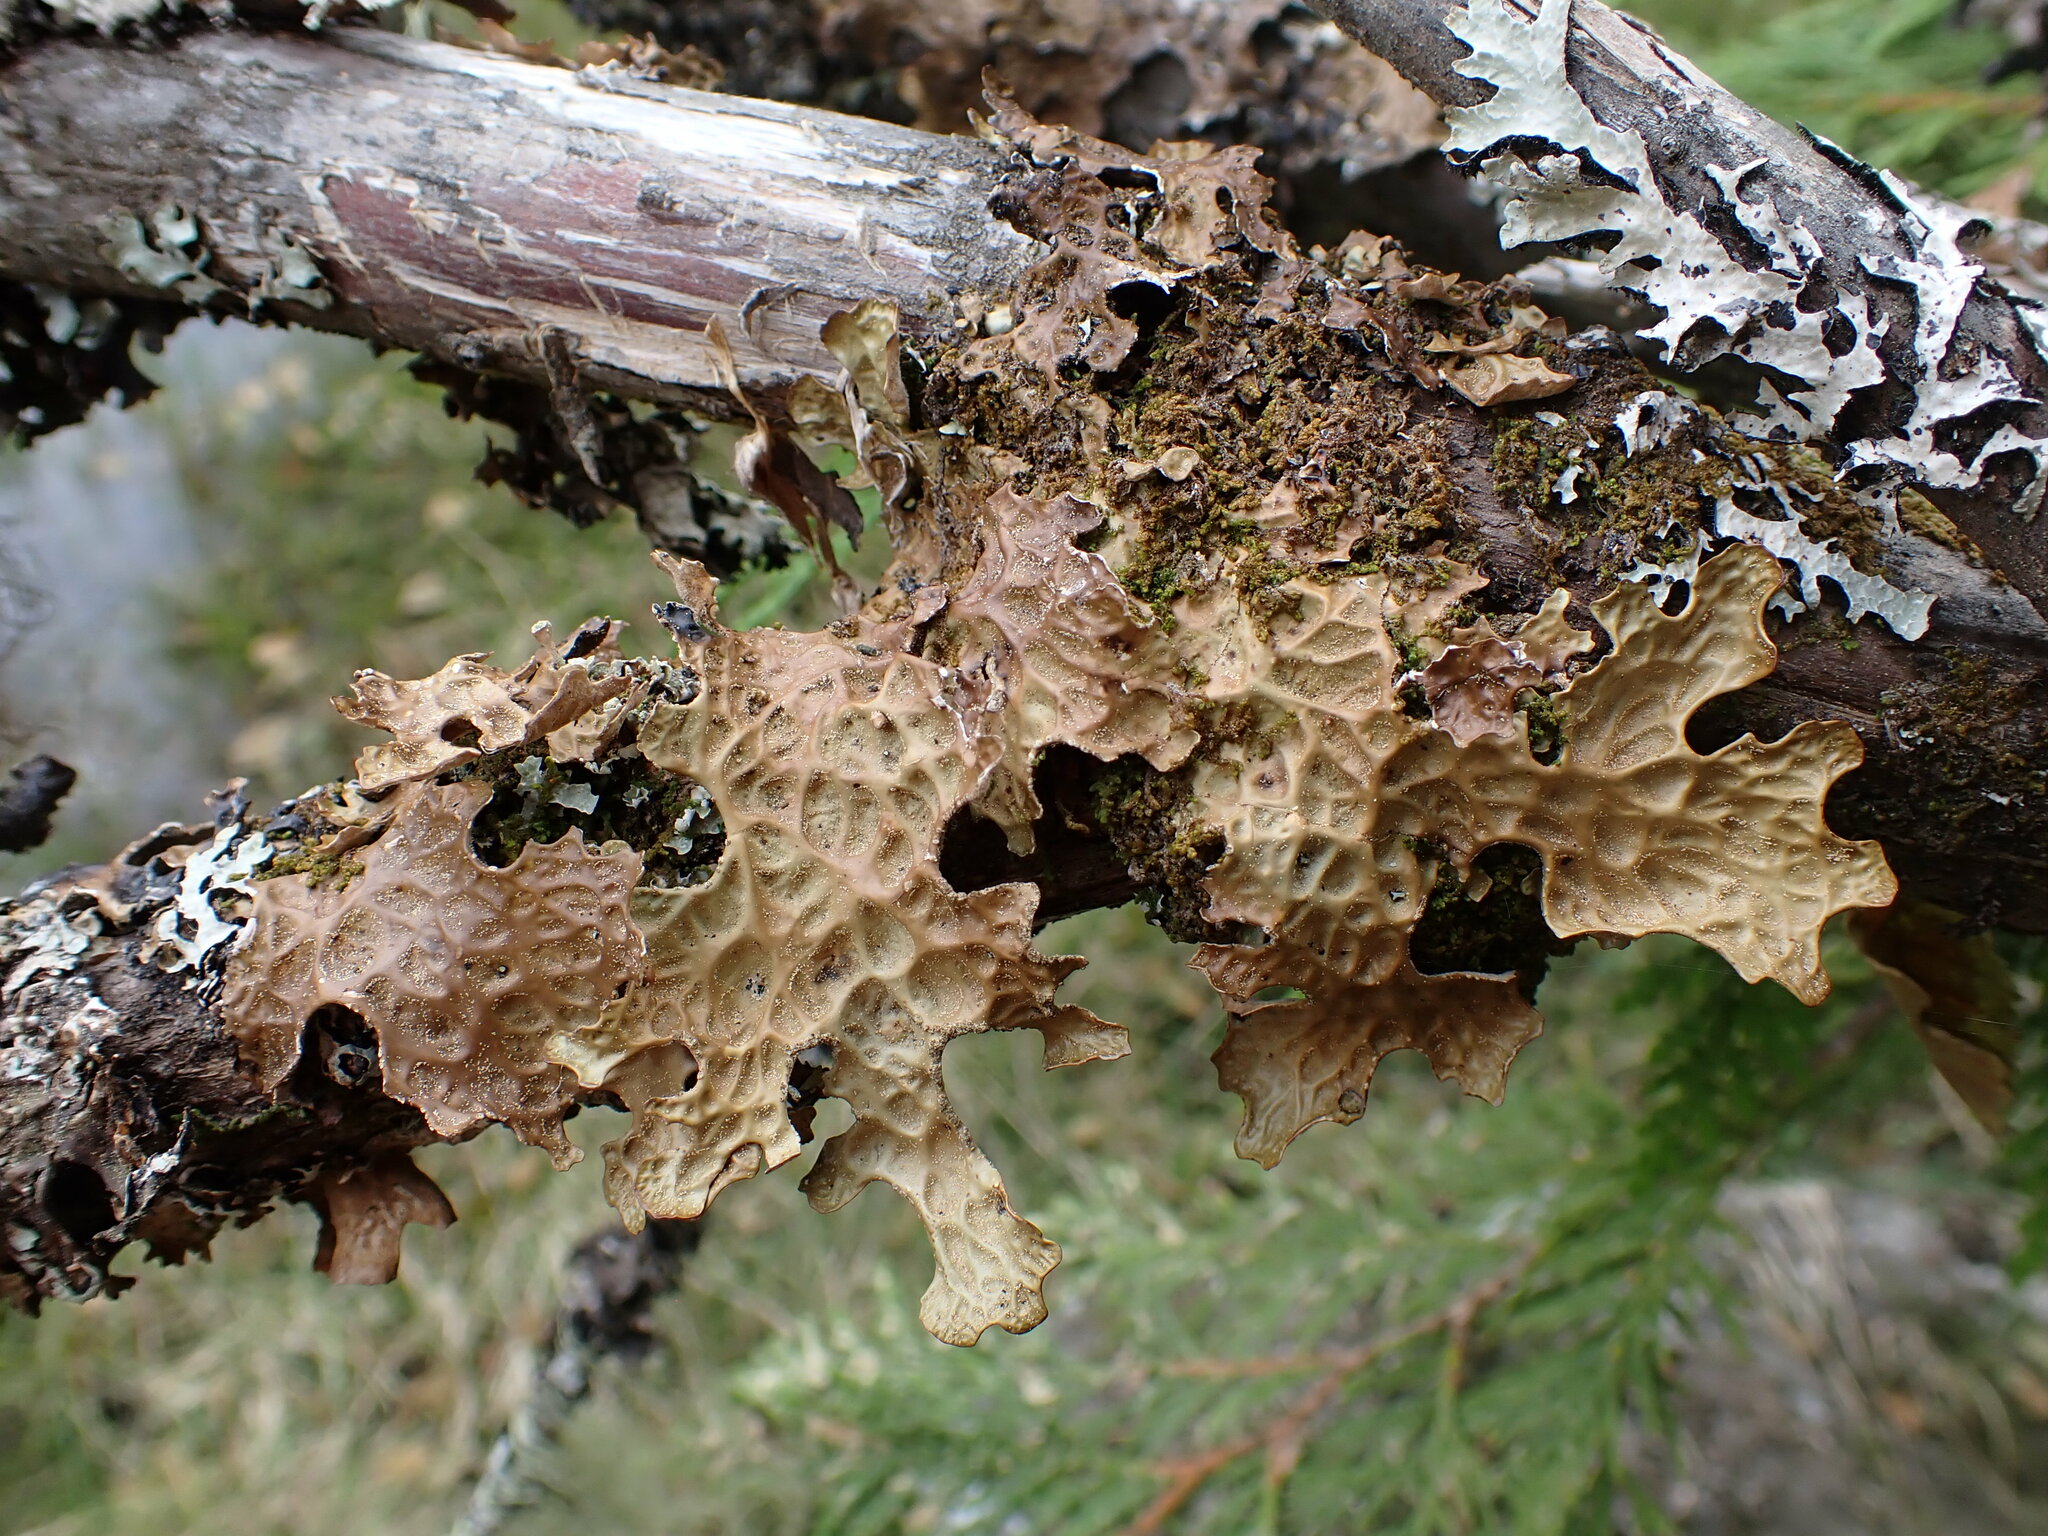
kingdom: Fungi
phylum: Ascomycota
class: Lecanoromycetes
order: Peltigerales
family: Lobariaceae
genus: Lobaria
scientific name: Lobaria pulmonaria
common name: Lungwort
